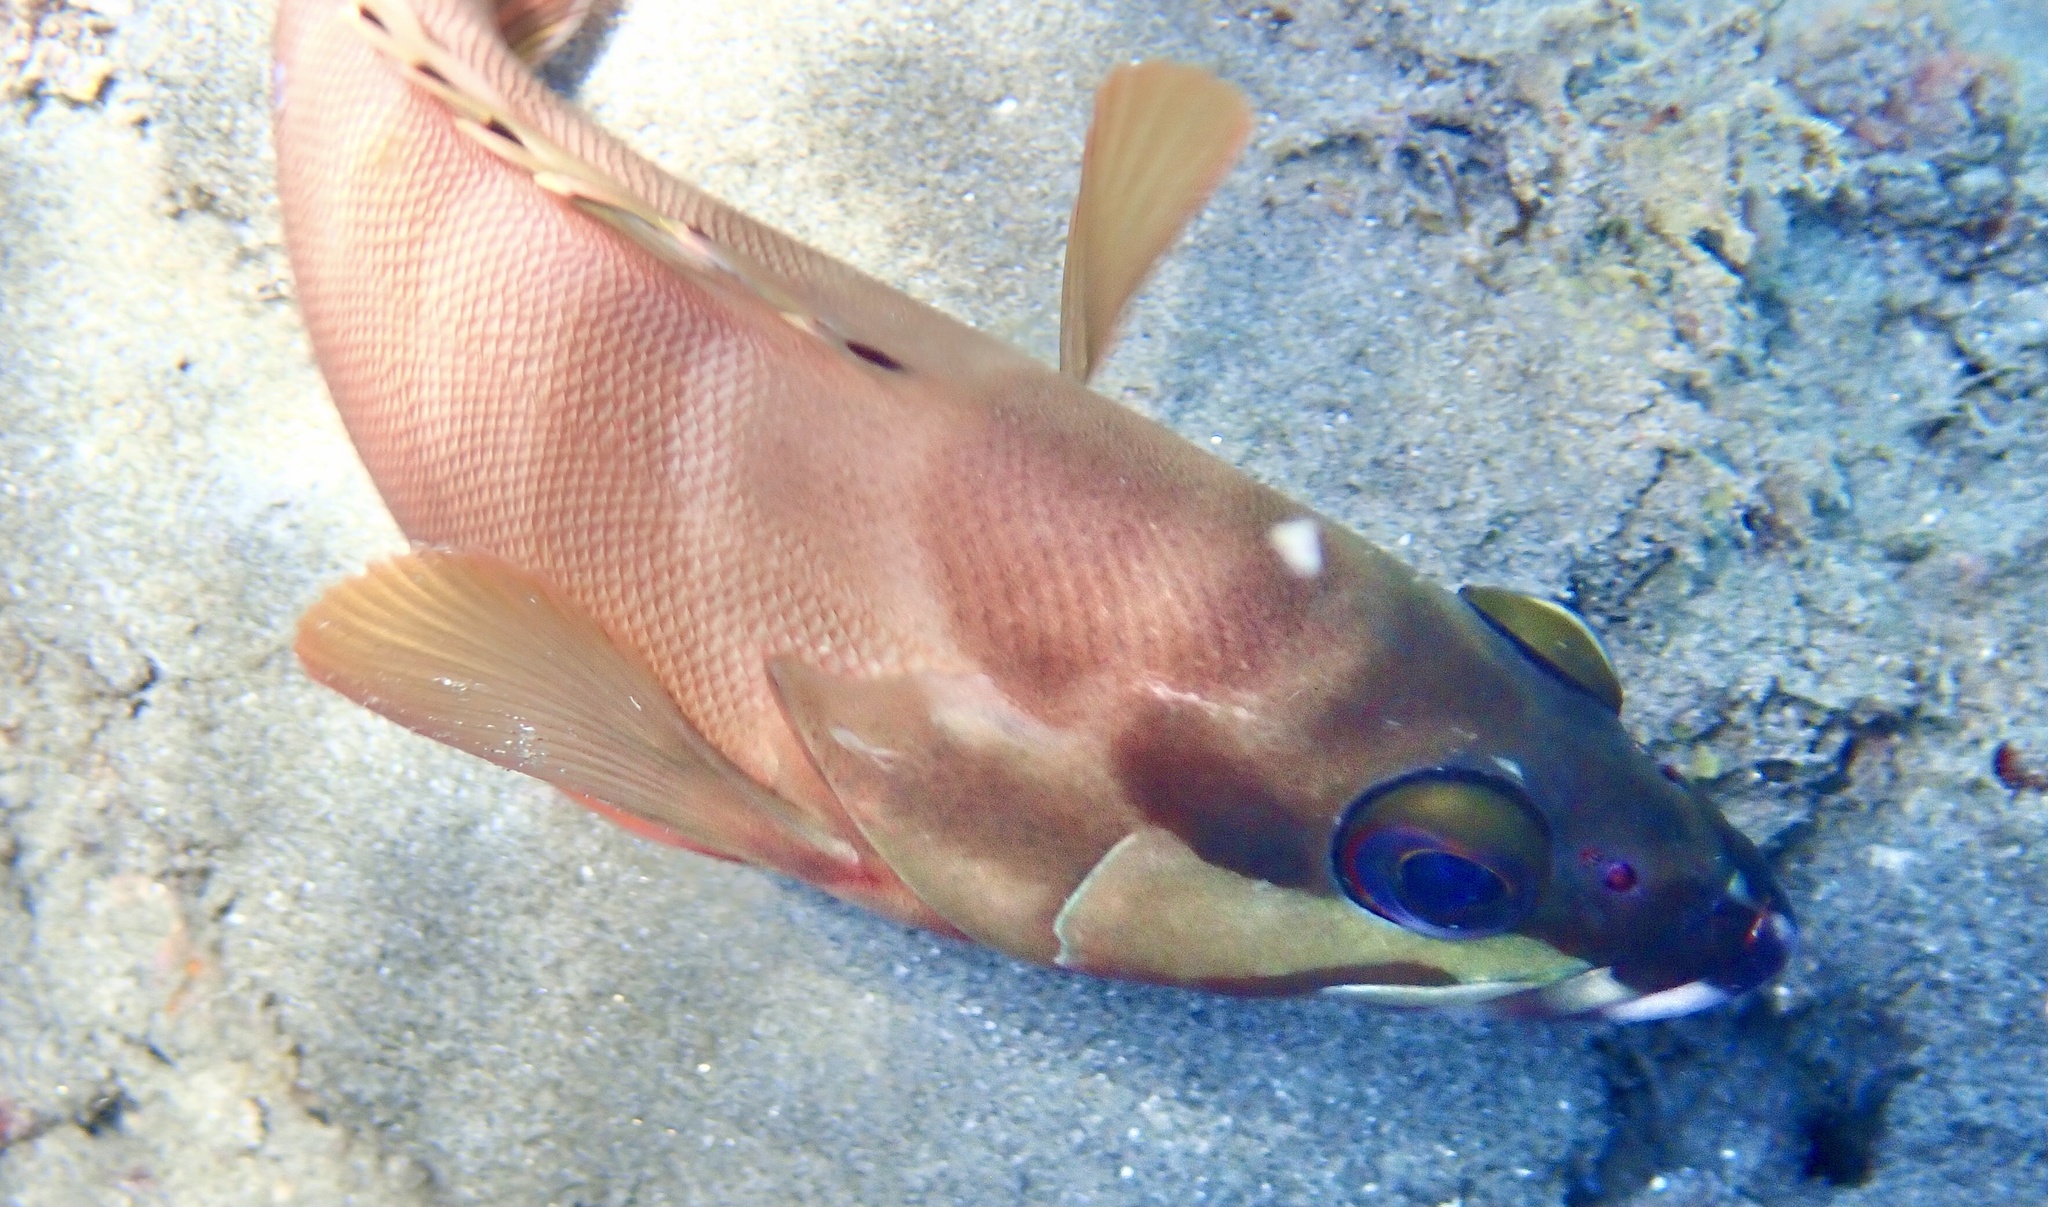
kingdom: Animalia
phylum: Chordata
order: Perciformes
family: Serranidae
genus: Epinephelus
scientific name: Epinephelus fasciatus
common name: Blacktip grouper
